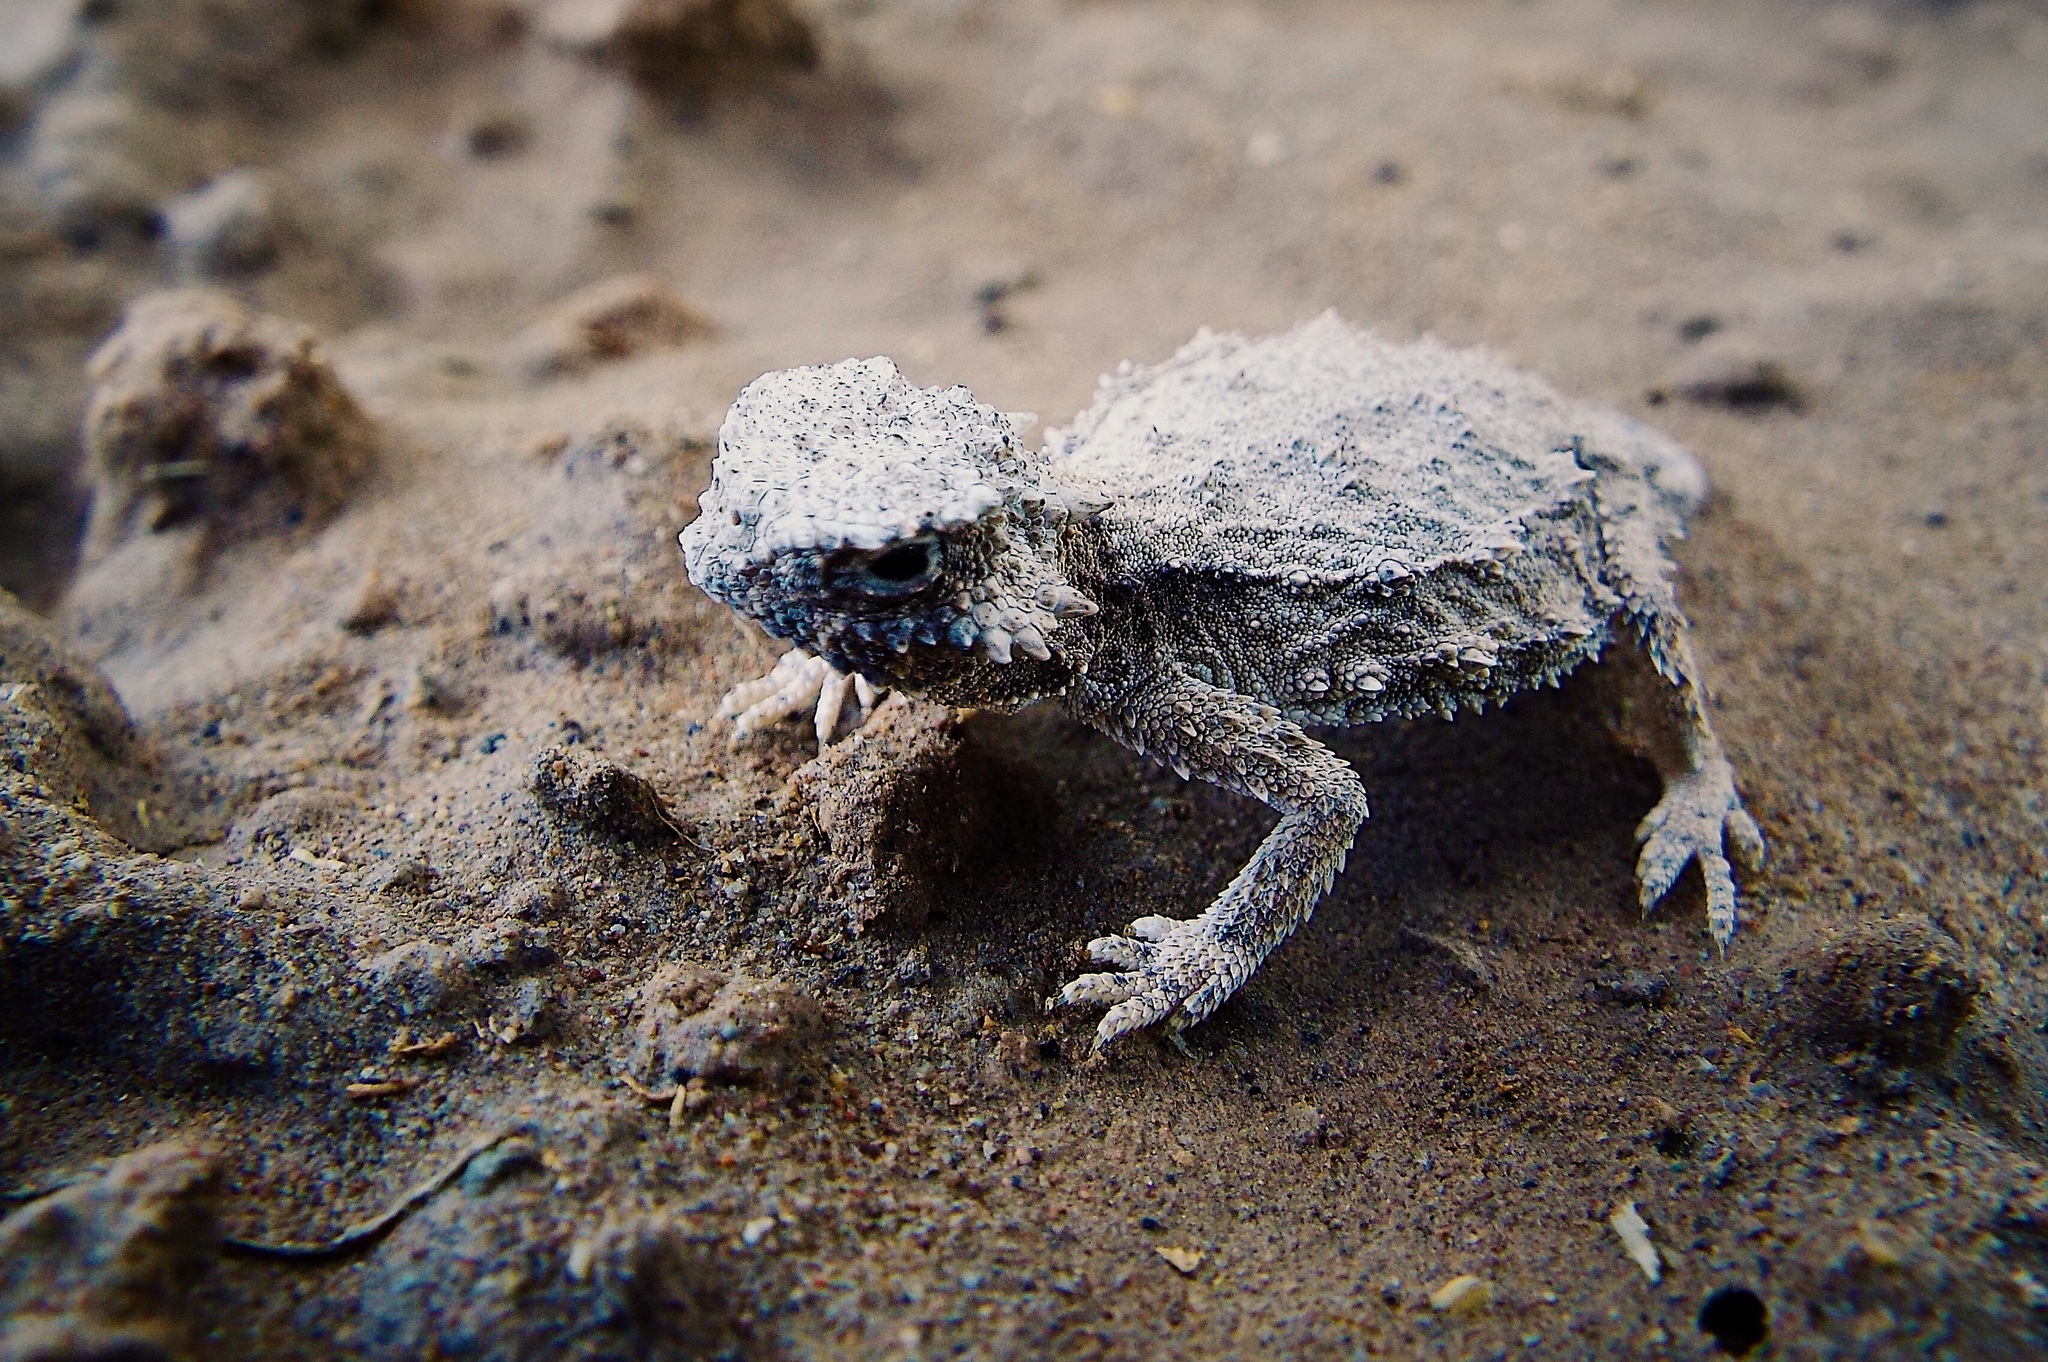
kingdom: Animalia
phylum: Chordata
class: Squamata
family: Phrynosomatidae
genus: Phrynosoma
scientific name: Phrynosoma modestum
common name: Roundtail horned lizard
